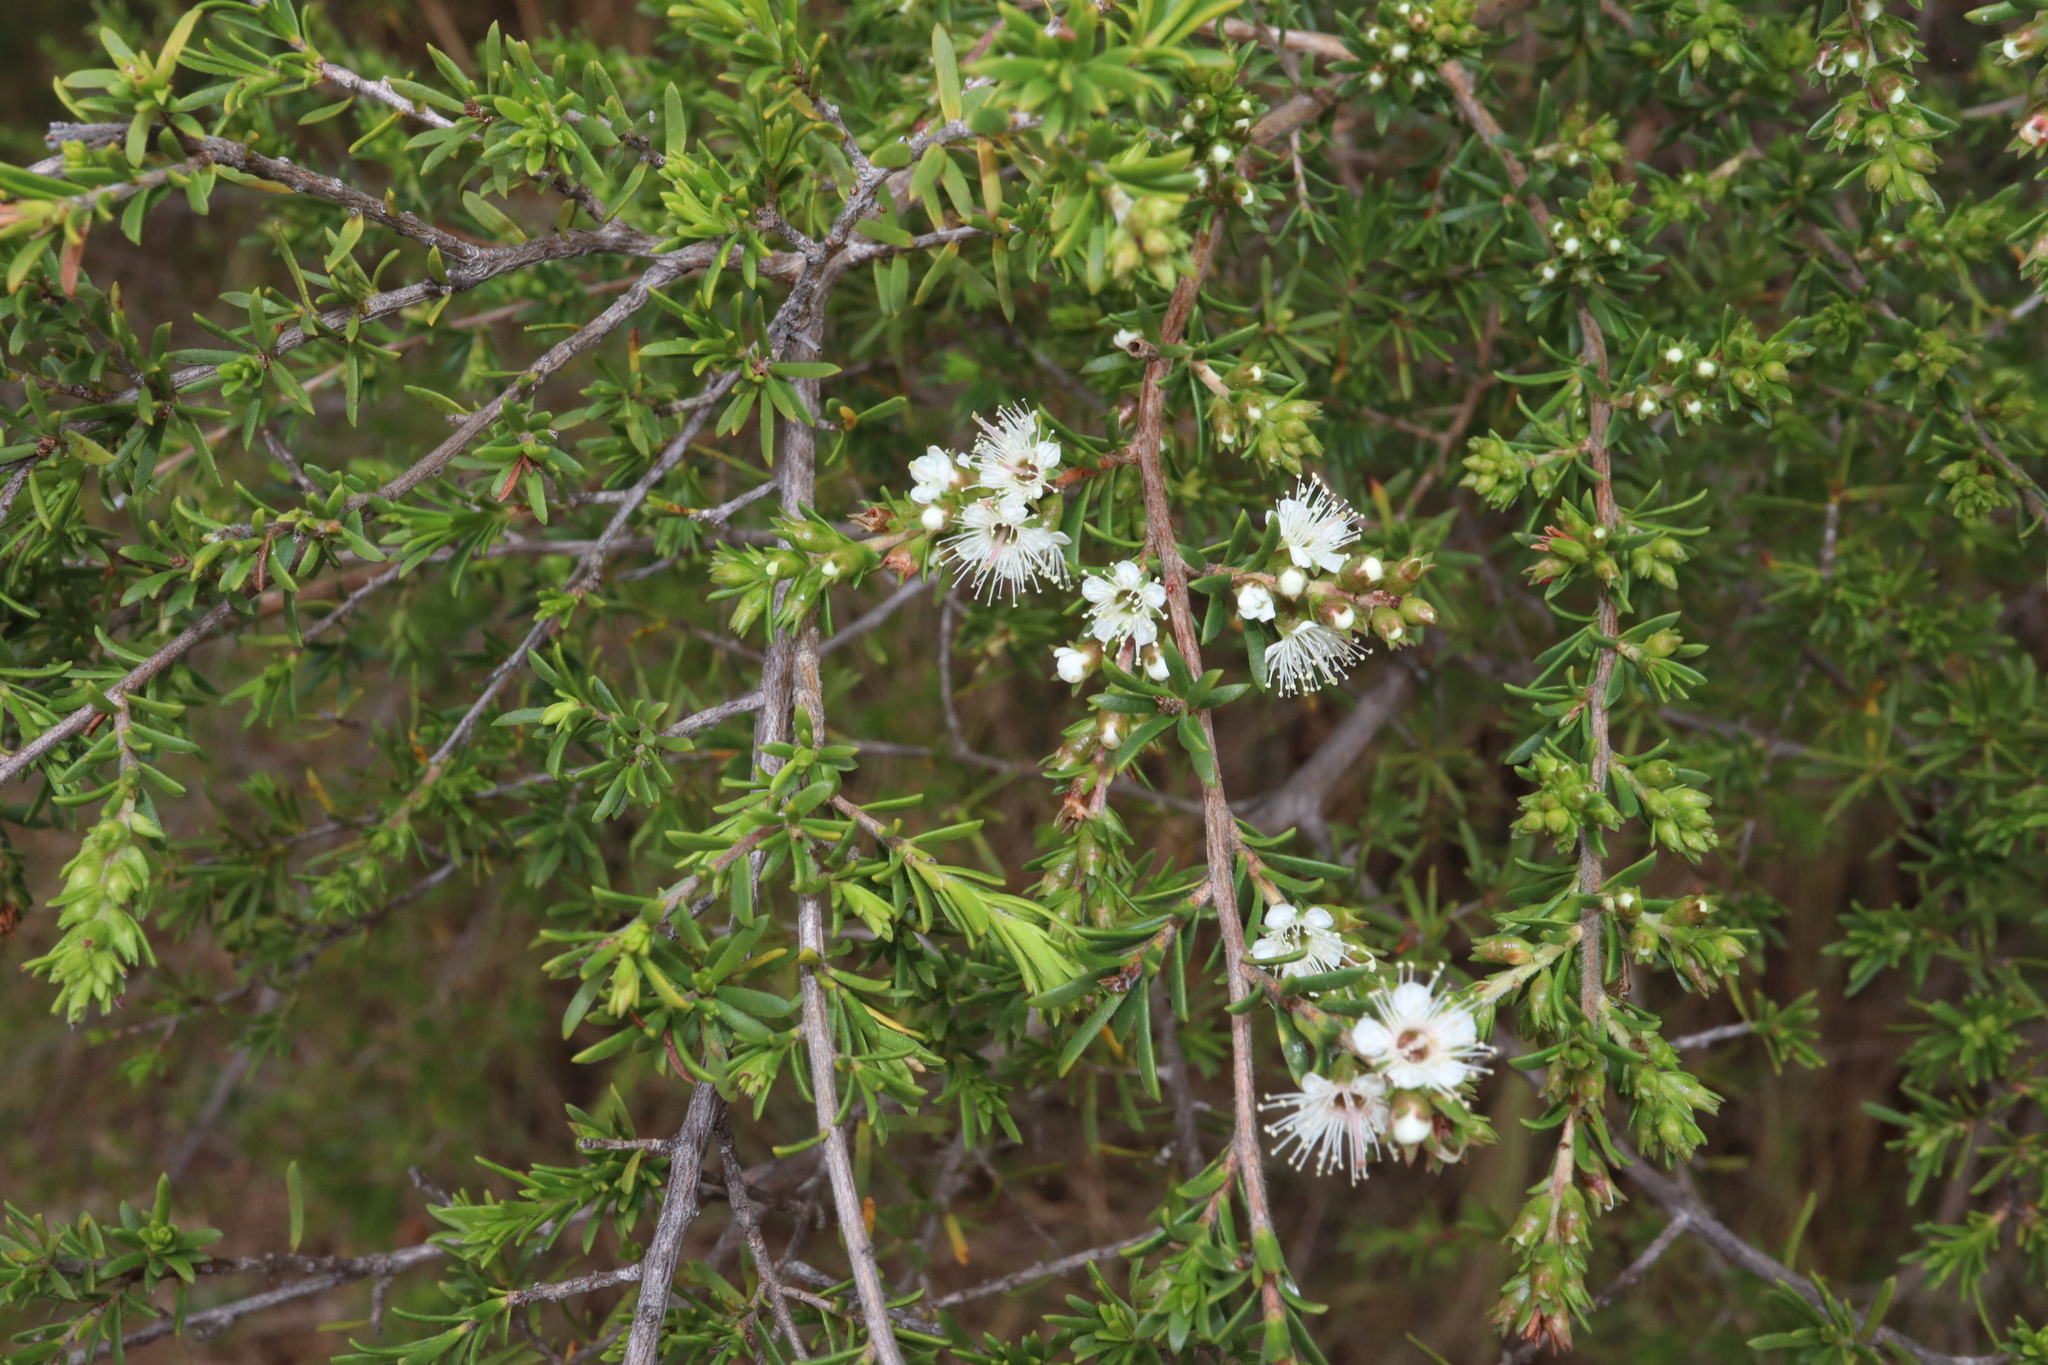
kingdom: Plantae
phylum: Tracheophyta
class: Magnoliopsida
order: Myrtales
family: Myrtaceae
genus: Kunzea
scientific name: Kunzea ambigua
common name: Tickbush
